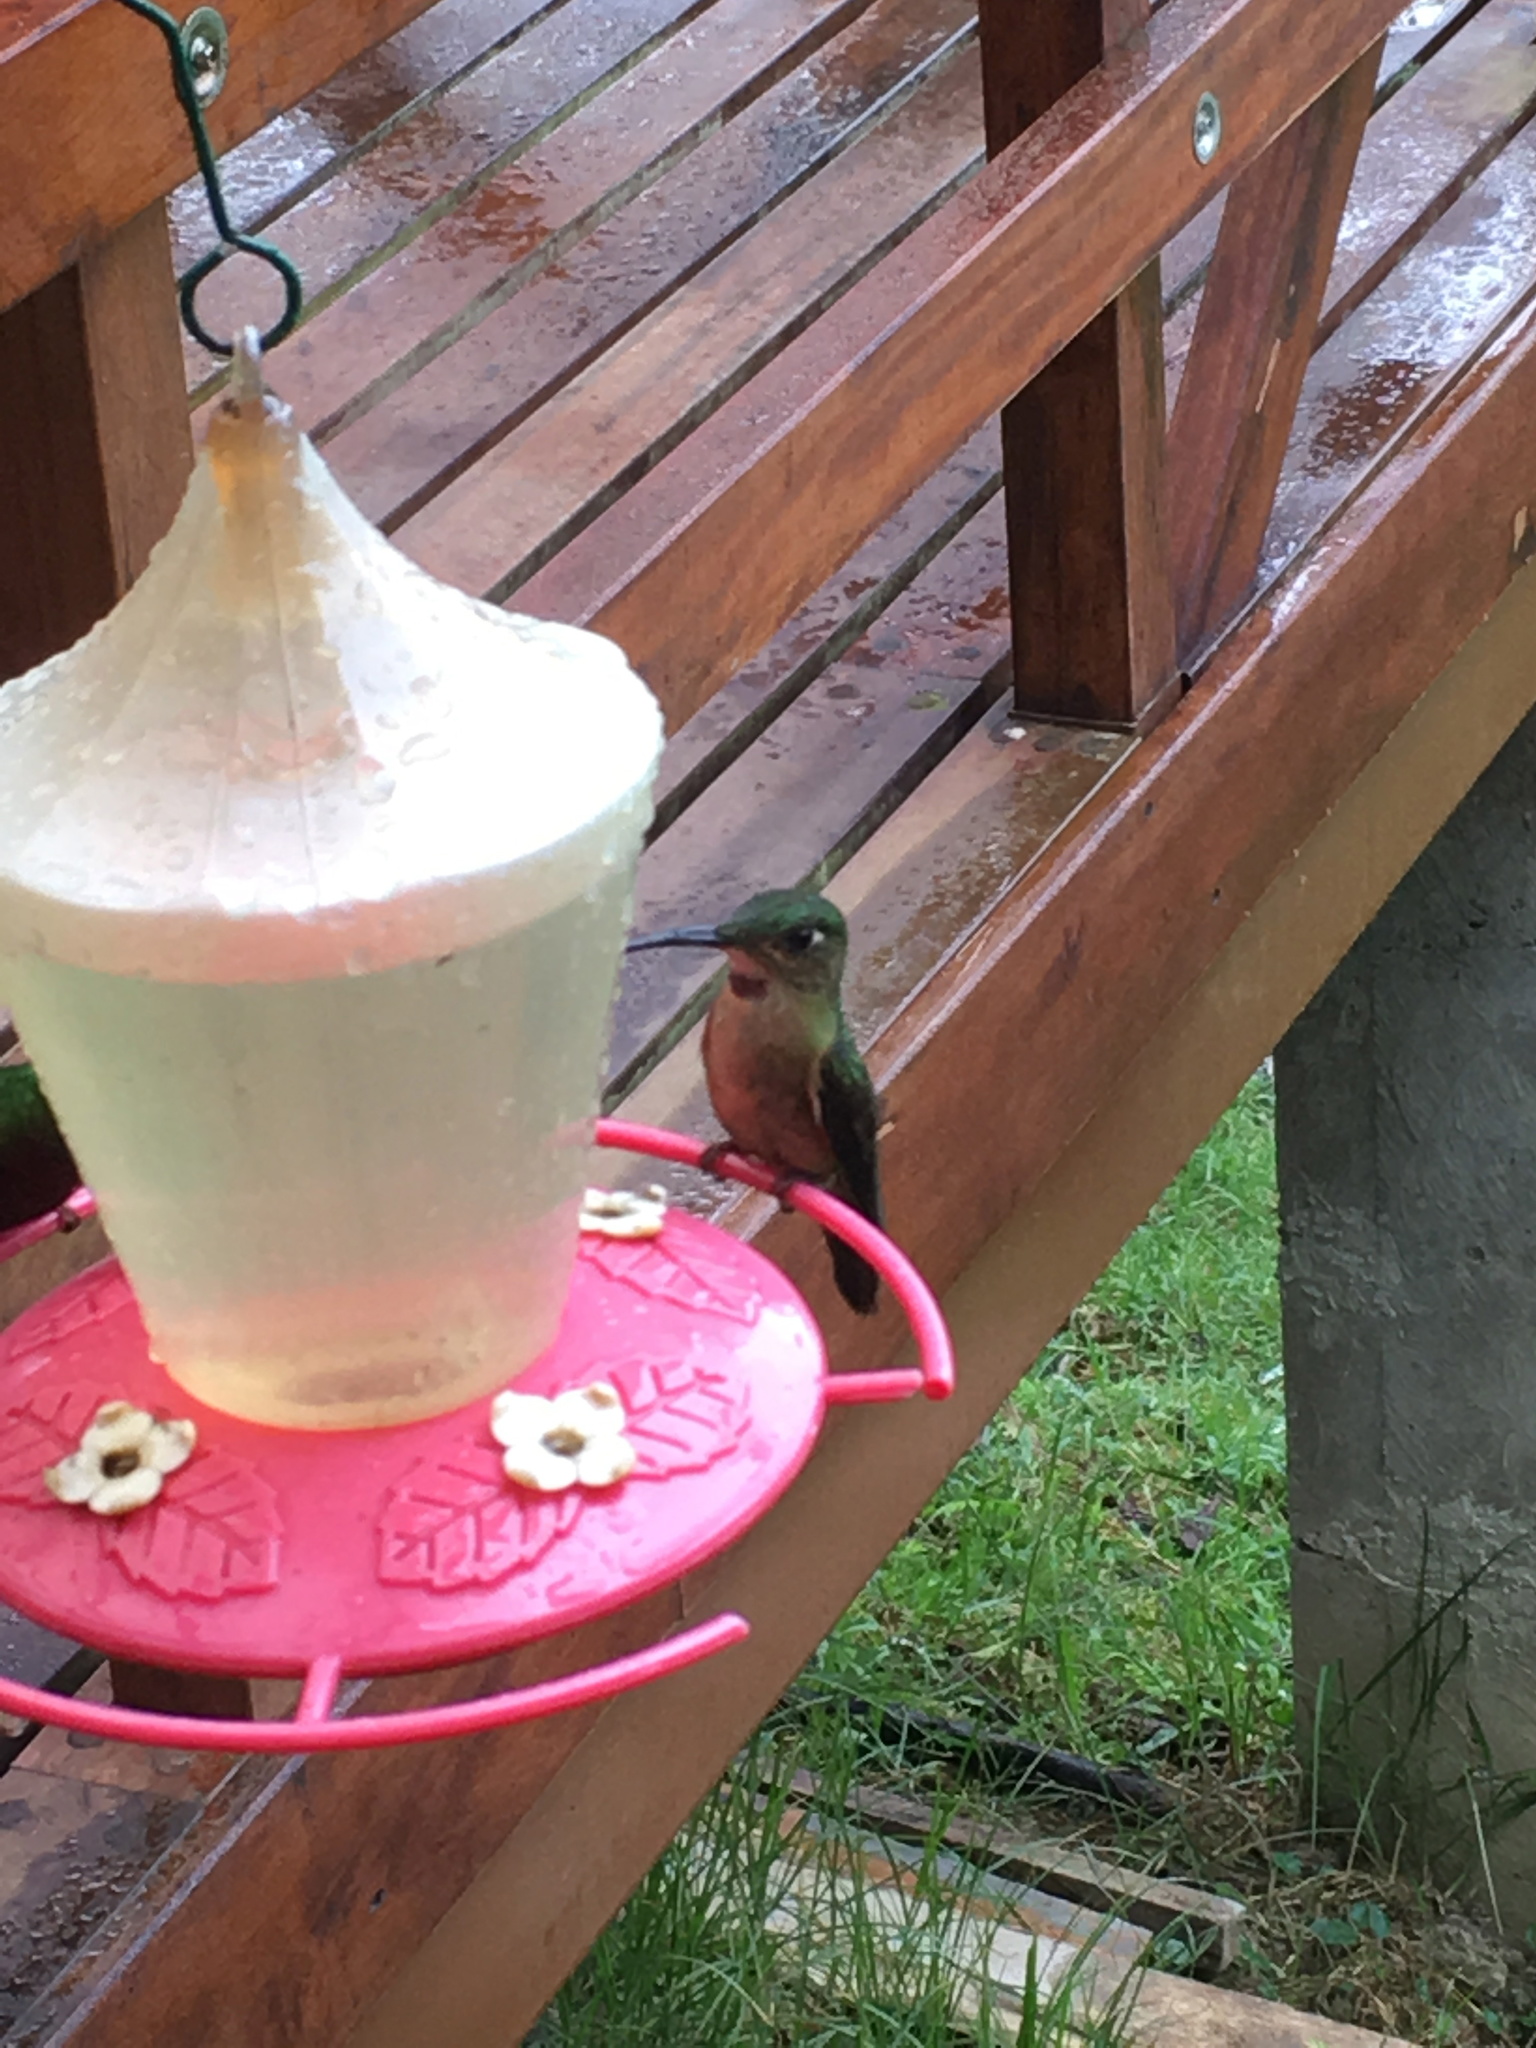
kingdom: Animalia
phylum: Chordata
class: Aves
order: Apodiformes
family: Trochilidae
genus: Heliodoxa
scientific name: Heliodoxa rubinoides
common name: Fawn-breasted brilliant
